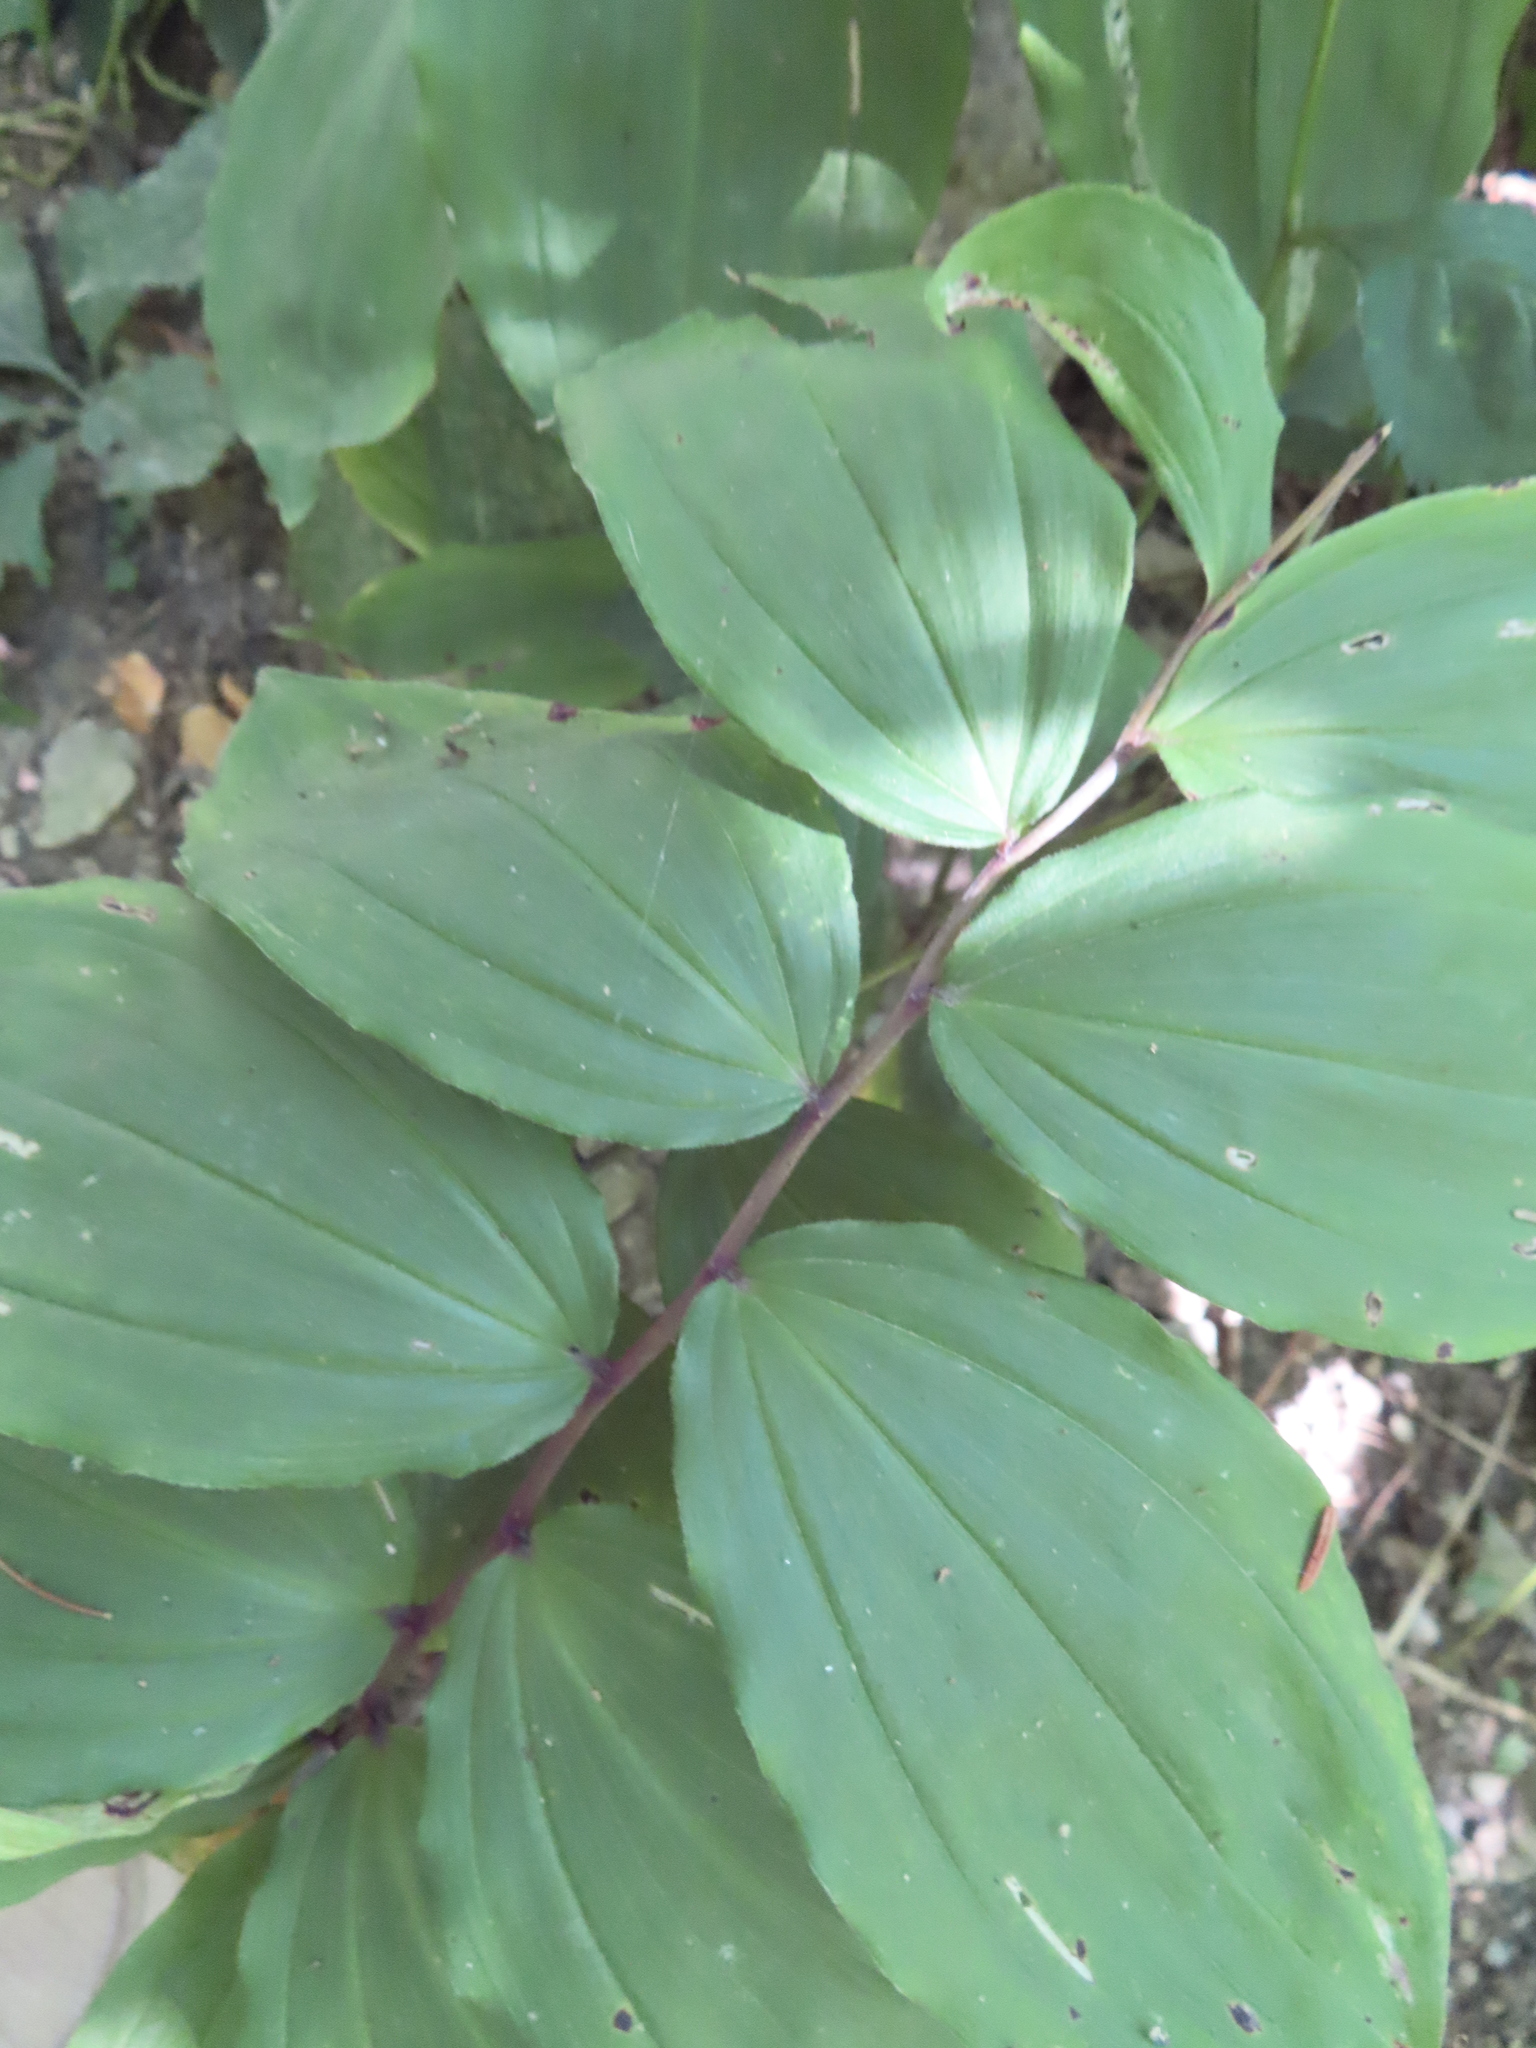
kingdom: Plantae
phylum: Tracheophyta
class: Liliopsida
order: Asparagales
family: Asparagaceae
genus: Maianthemum
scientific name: Maianthemum racemosum
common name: False spikenard
